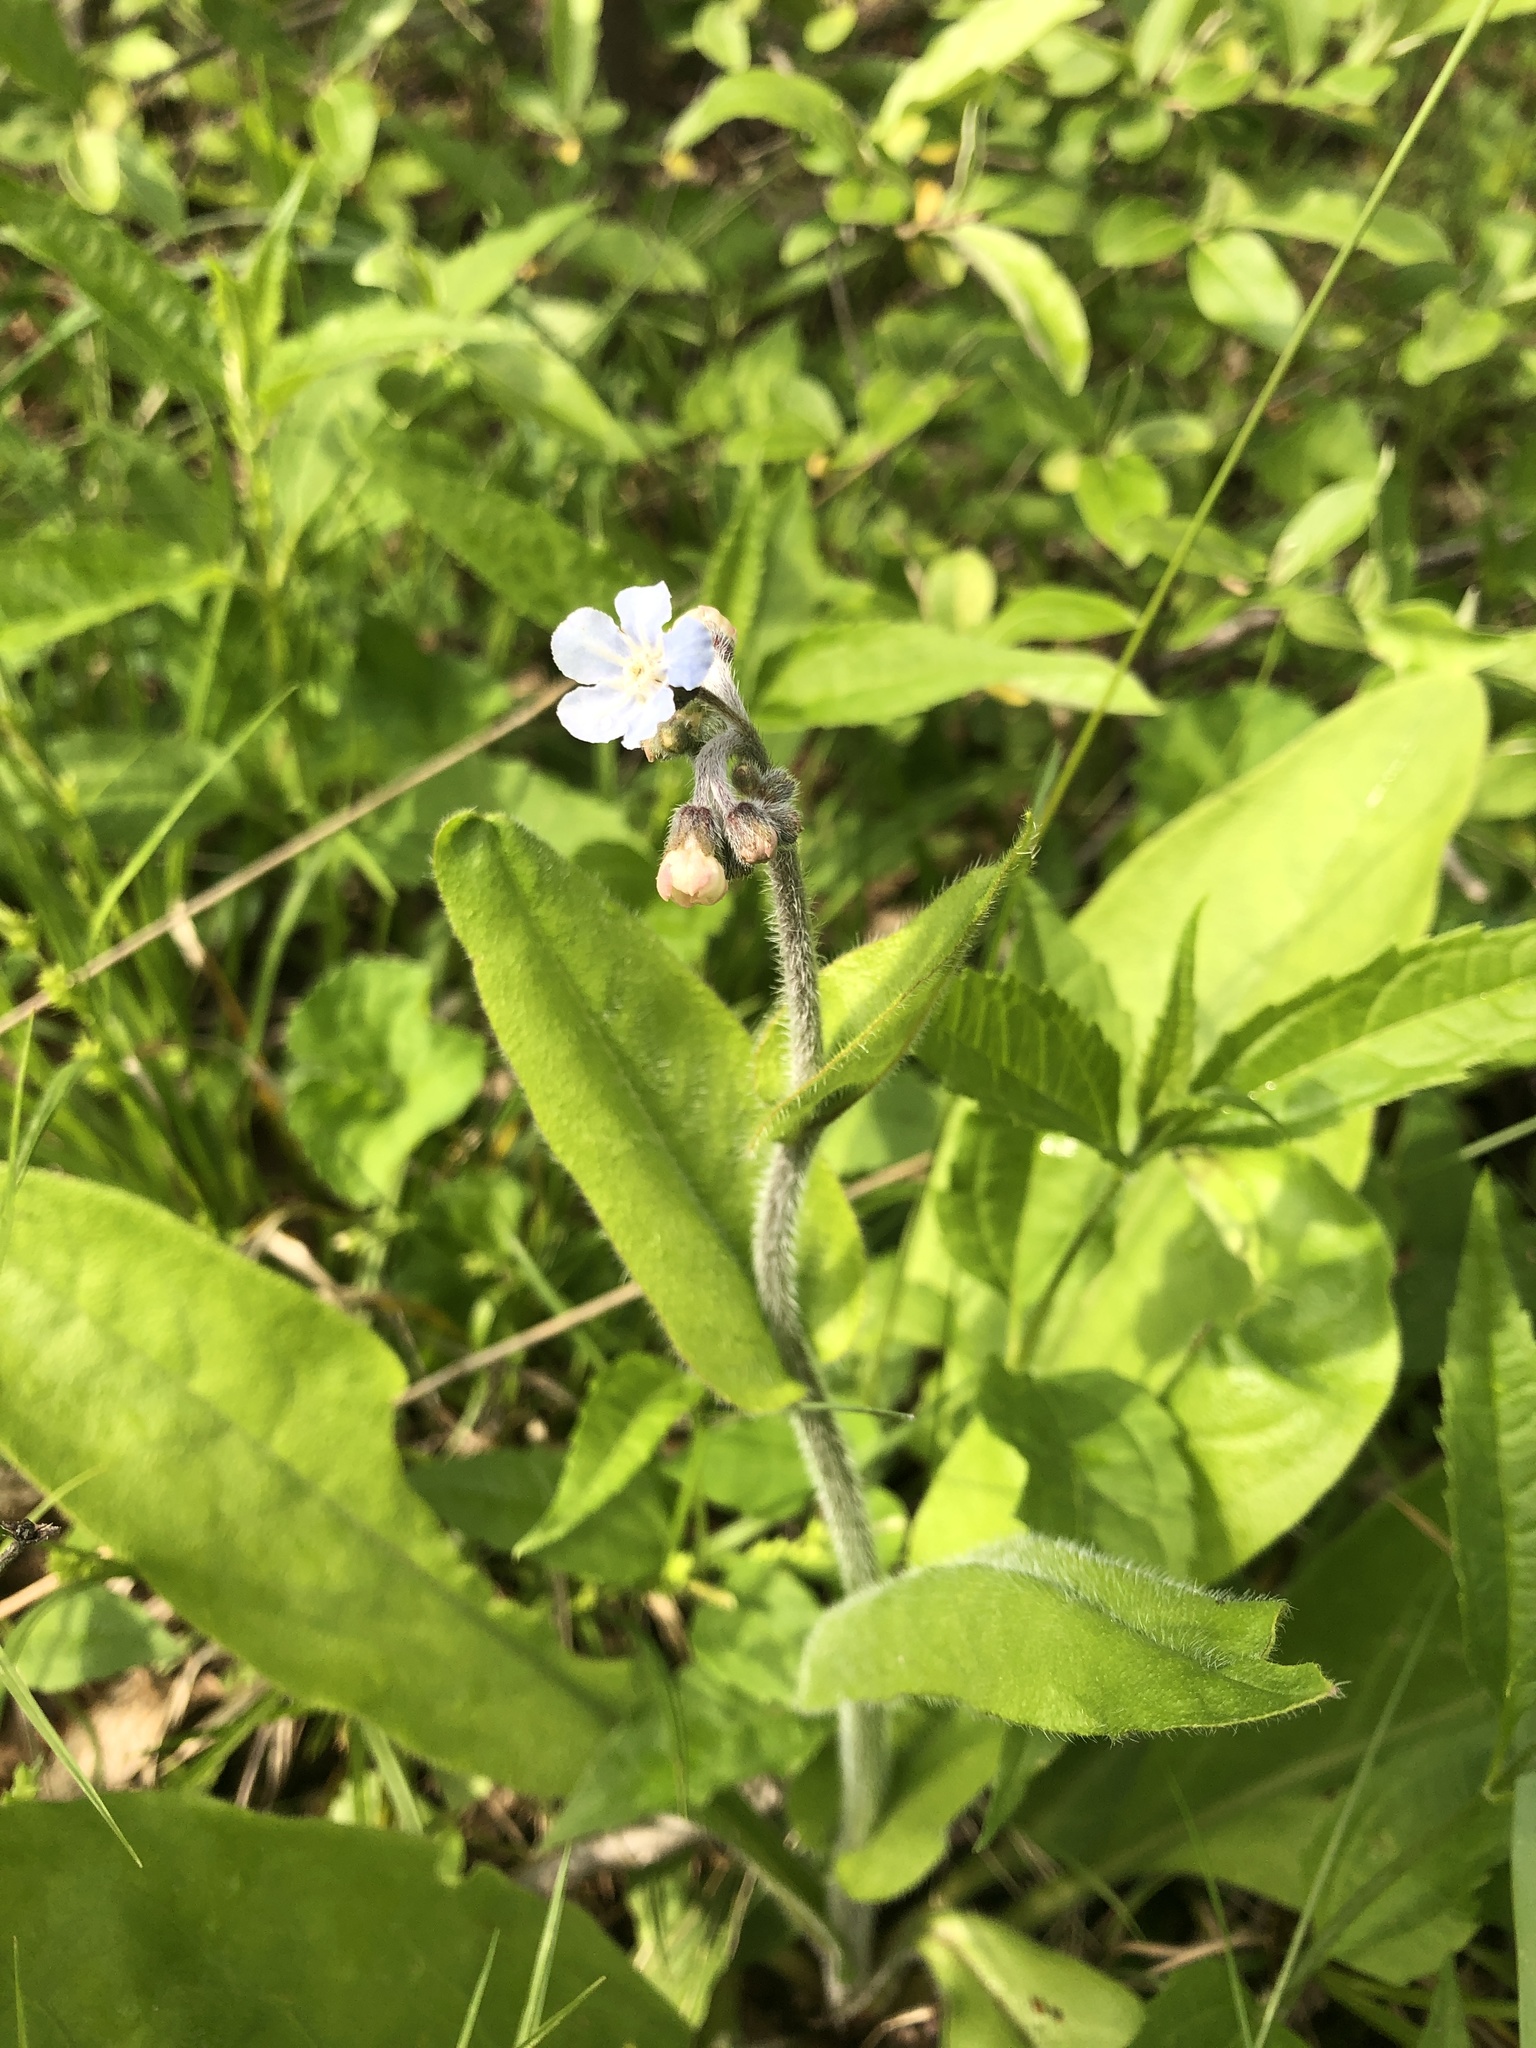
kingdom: Plantae
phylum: Tracheophyta
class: Magnoliopsida
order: Boraginales
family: Boraginaceae
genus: Andersonglossum
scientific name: Andersonglossum virginianum
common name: Wild comfrey
